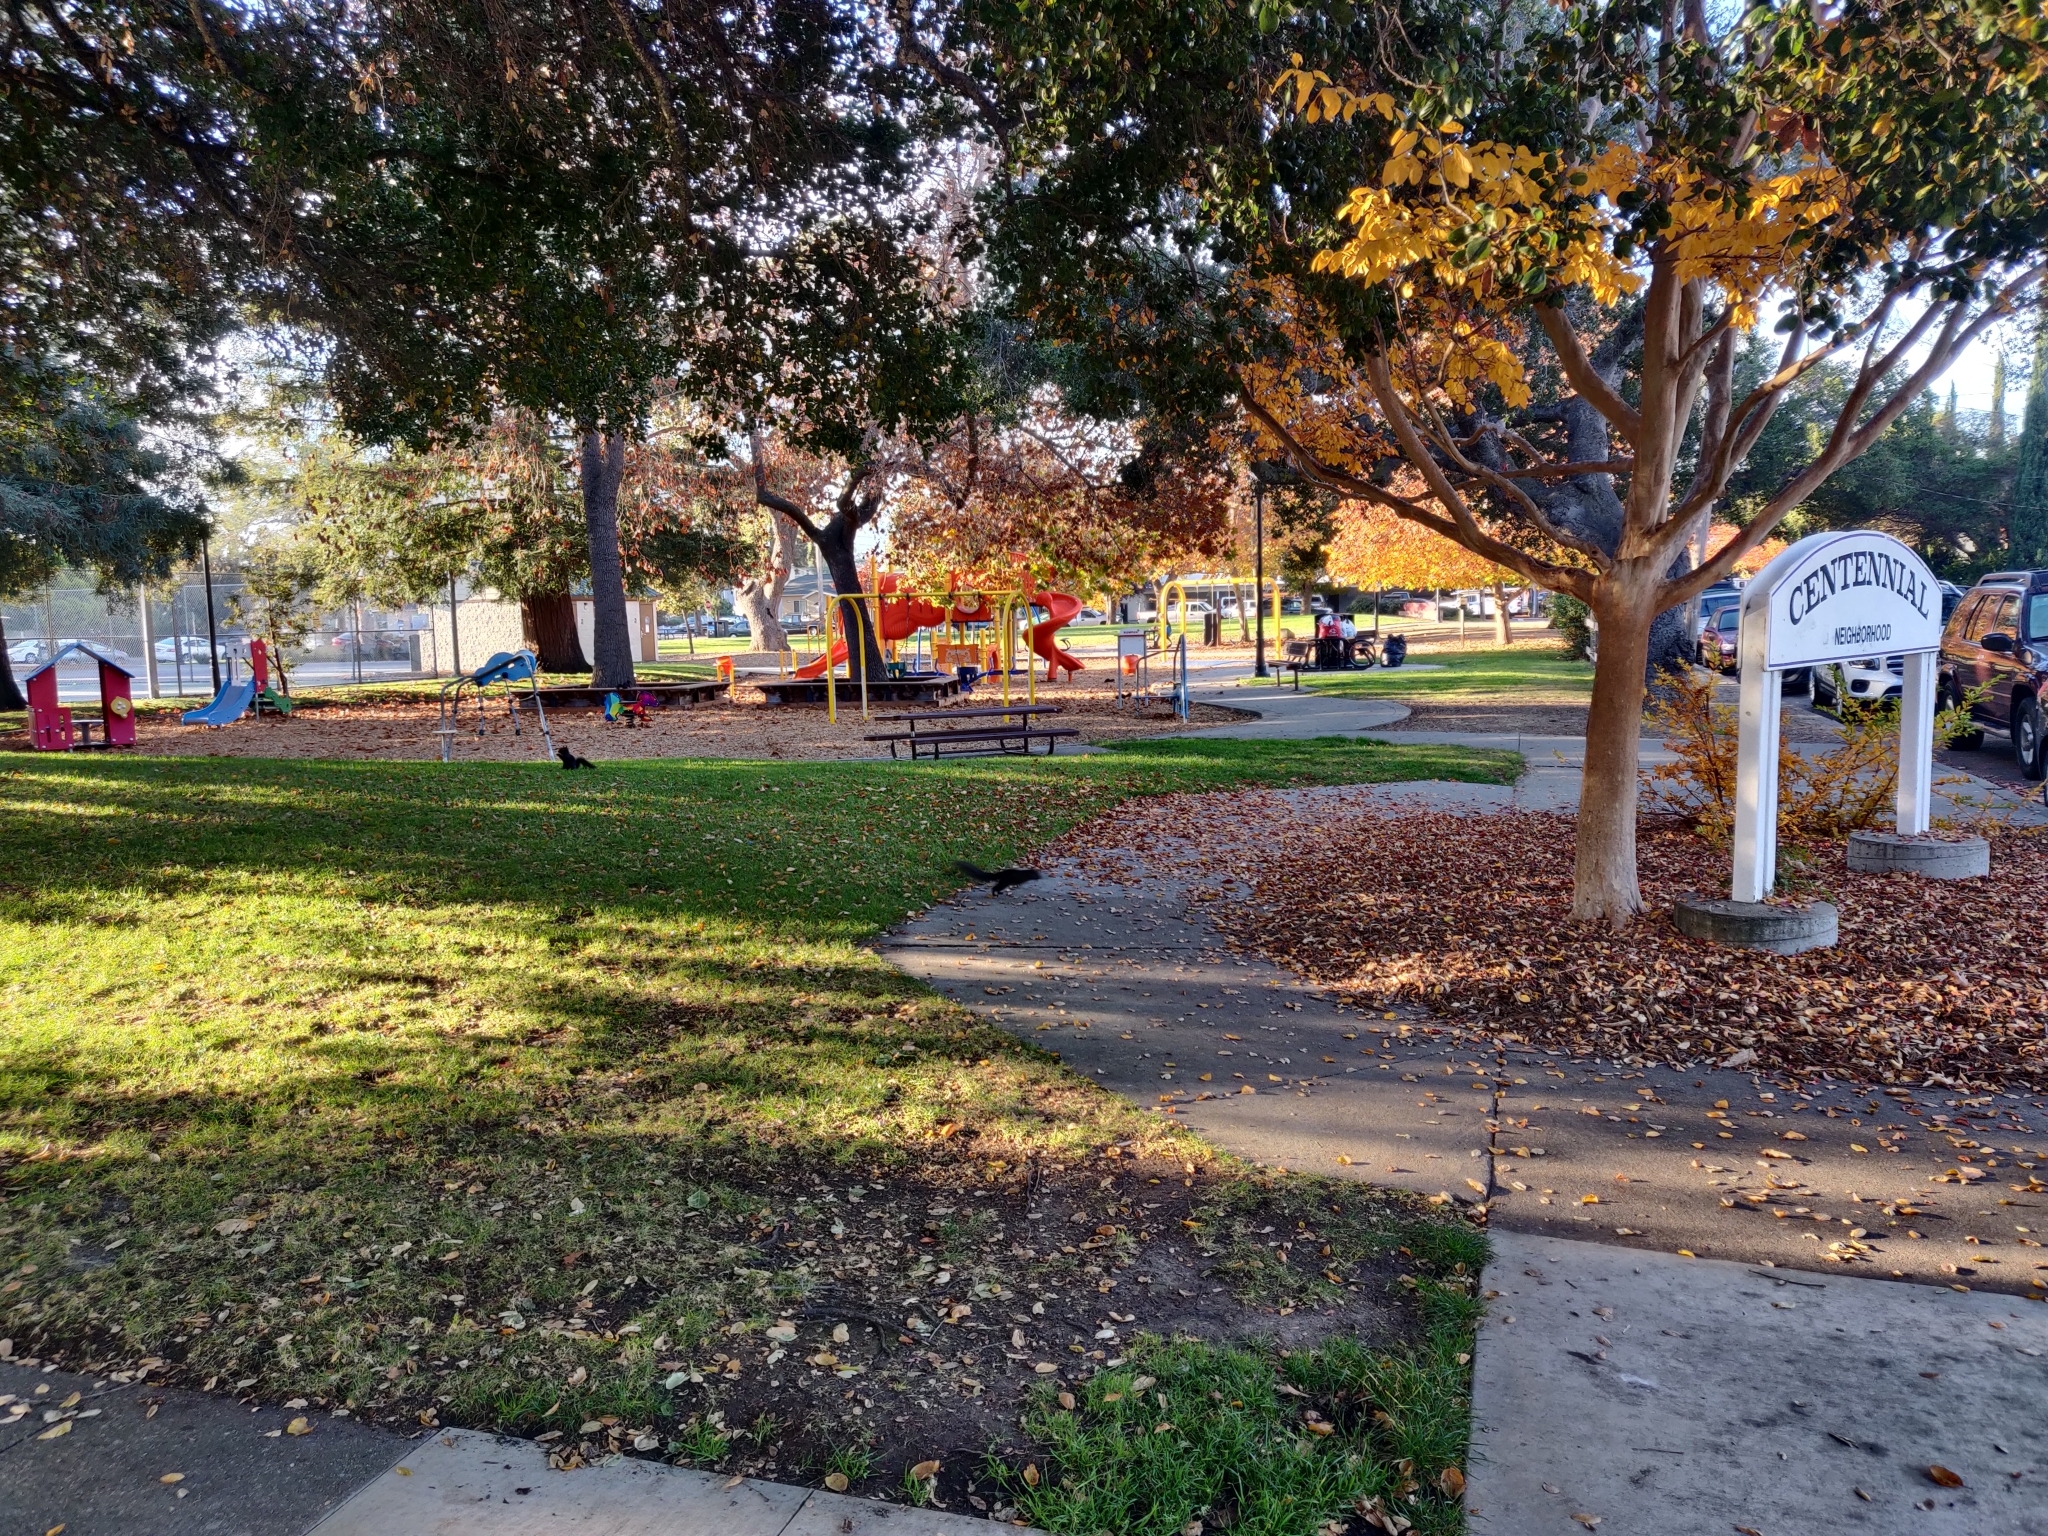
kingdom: Animalia
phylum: Chordata
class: Mammalia
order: Rodentia
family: Sciuridae
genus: Sciurus
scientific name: Sciurus carolinensis
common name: Eastern gray squirrel
